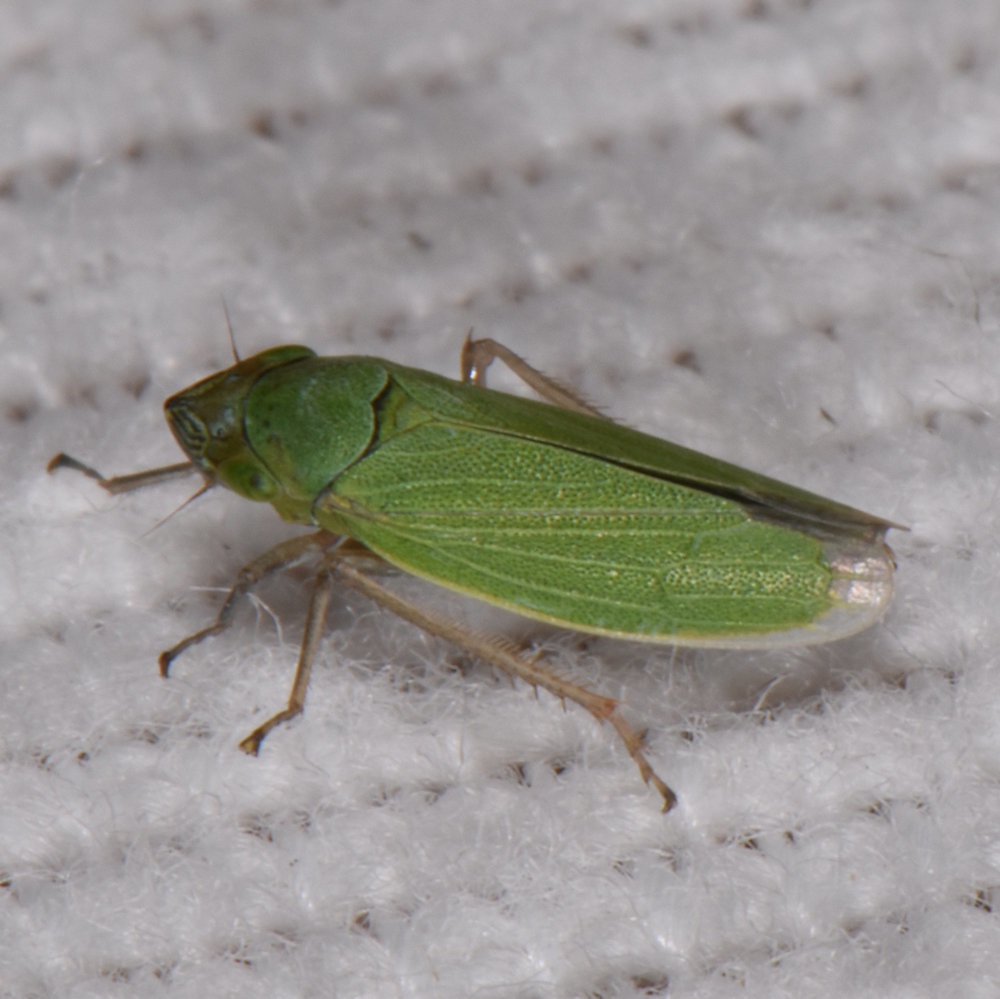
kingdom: Animalia
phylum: Arthropoda
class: Insecta
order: Hemiptera
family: Cicadellidae
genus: Helochara
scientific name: Helochara communis
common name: Bog leafhopper
